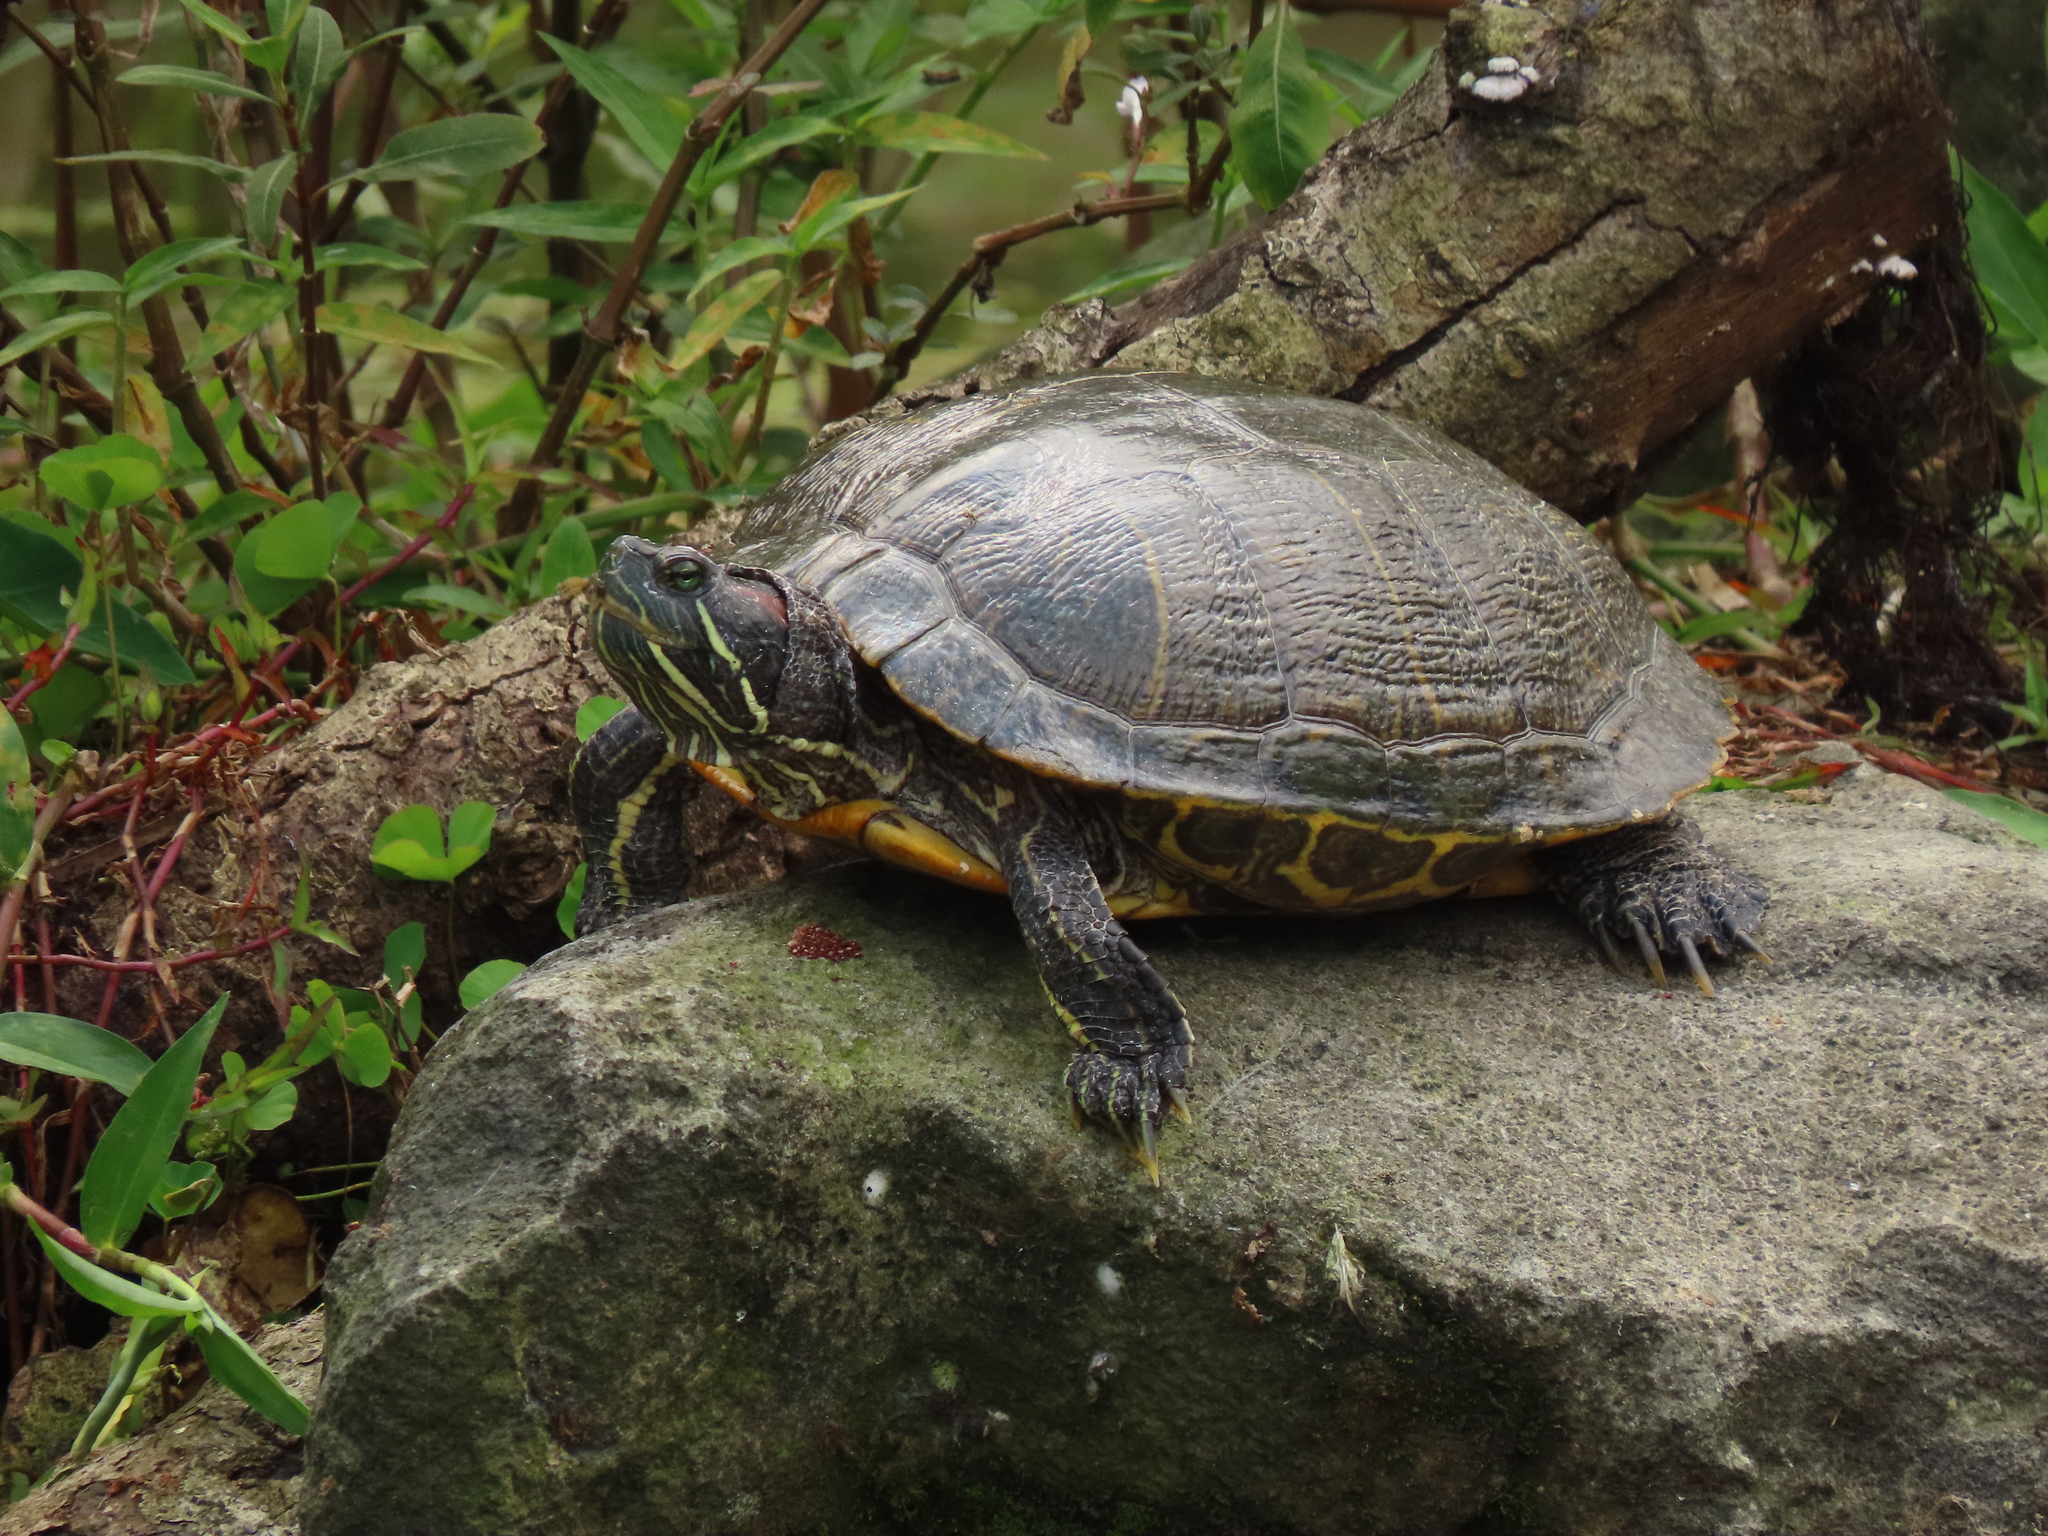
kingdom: Animalia
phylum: Chordata
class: Testudines
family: Emydidae
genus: Trachemys
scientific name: Trachemys scripta
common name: Slider
